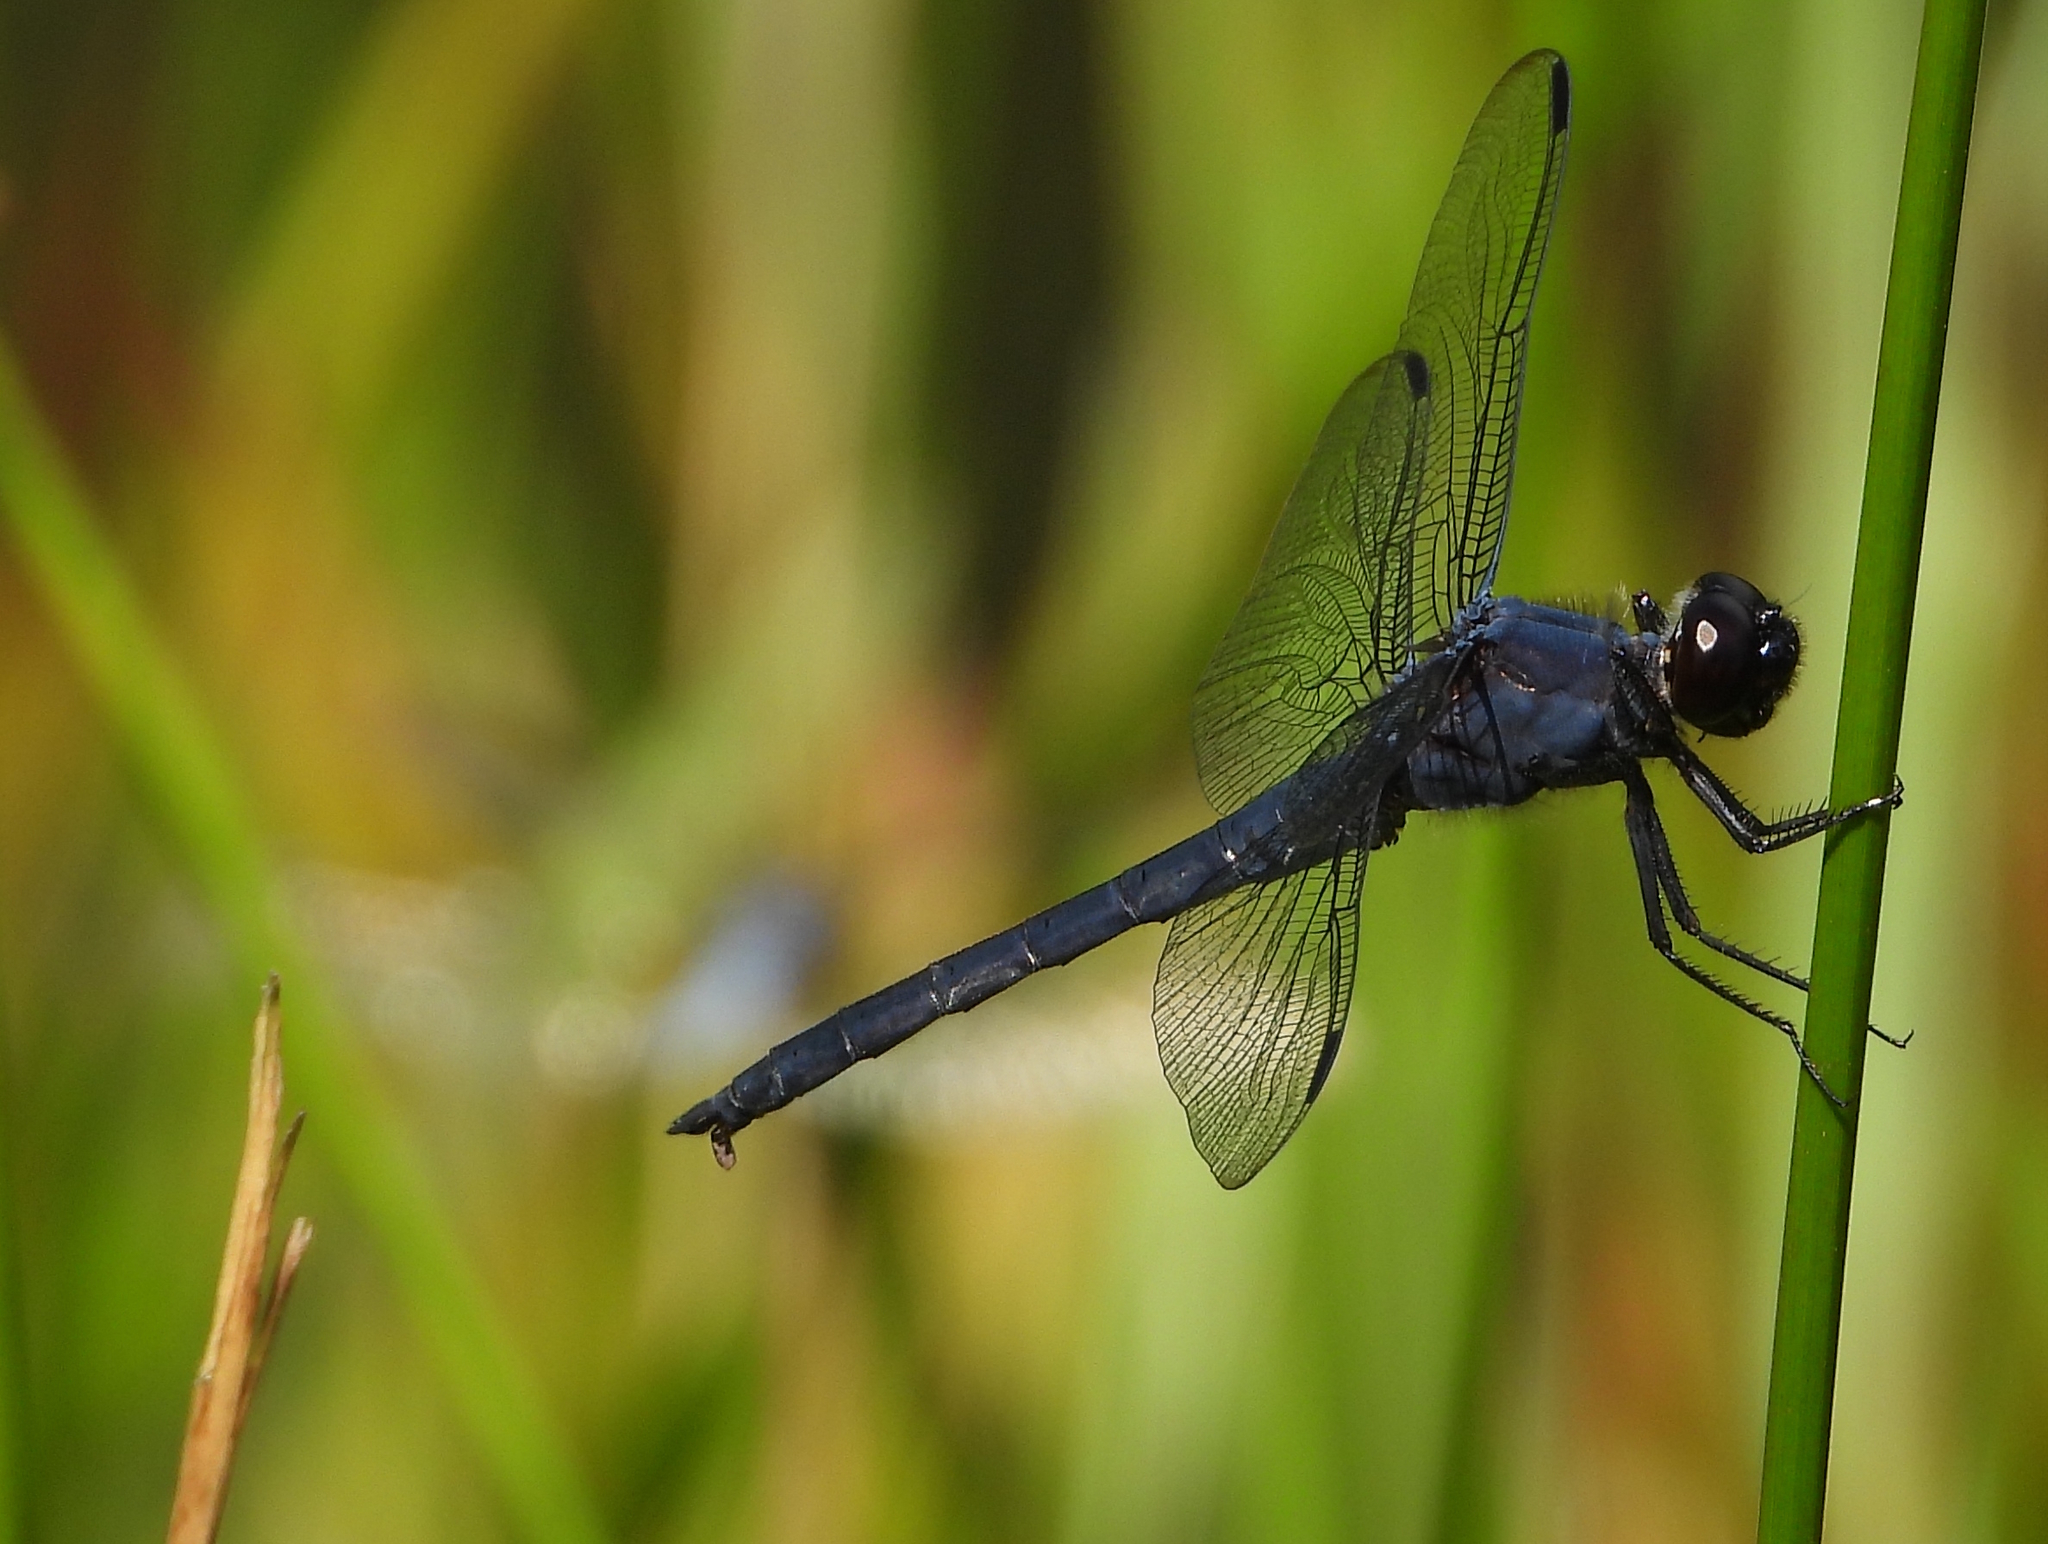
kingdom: Animalia
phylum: Arthropoda
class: Insecta
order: Odonata
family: Libellulidae
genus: Libellula
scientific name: Libellula incesta
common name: Slaty skimmer
